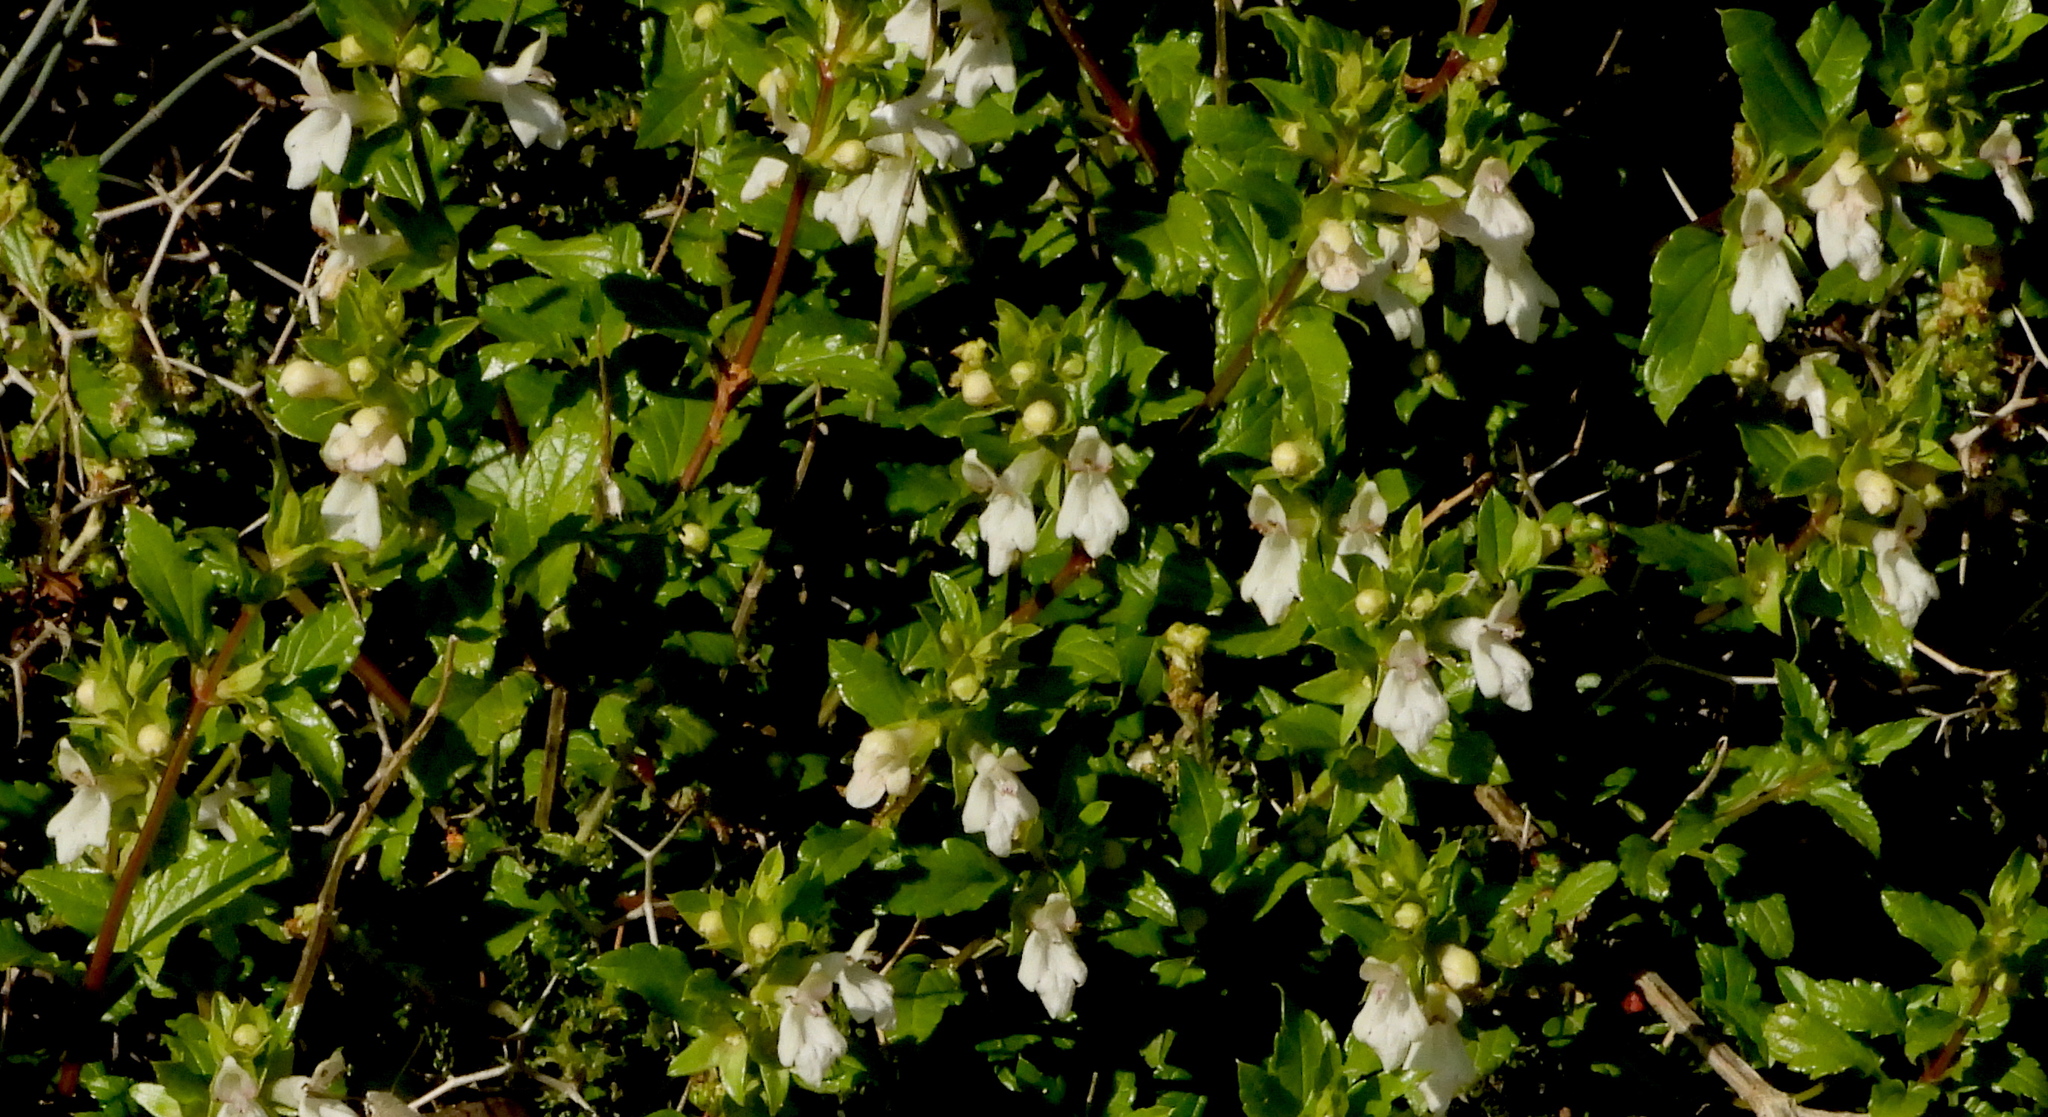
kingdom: Plantae
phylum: Tracheophyta
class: Magnoliopsida
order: Lamiales
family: Lamiaceae
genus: Prasium
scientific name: Prasium majus
